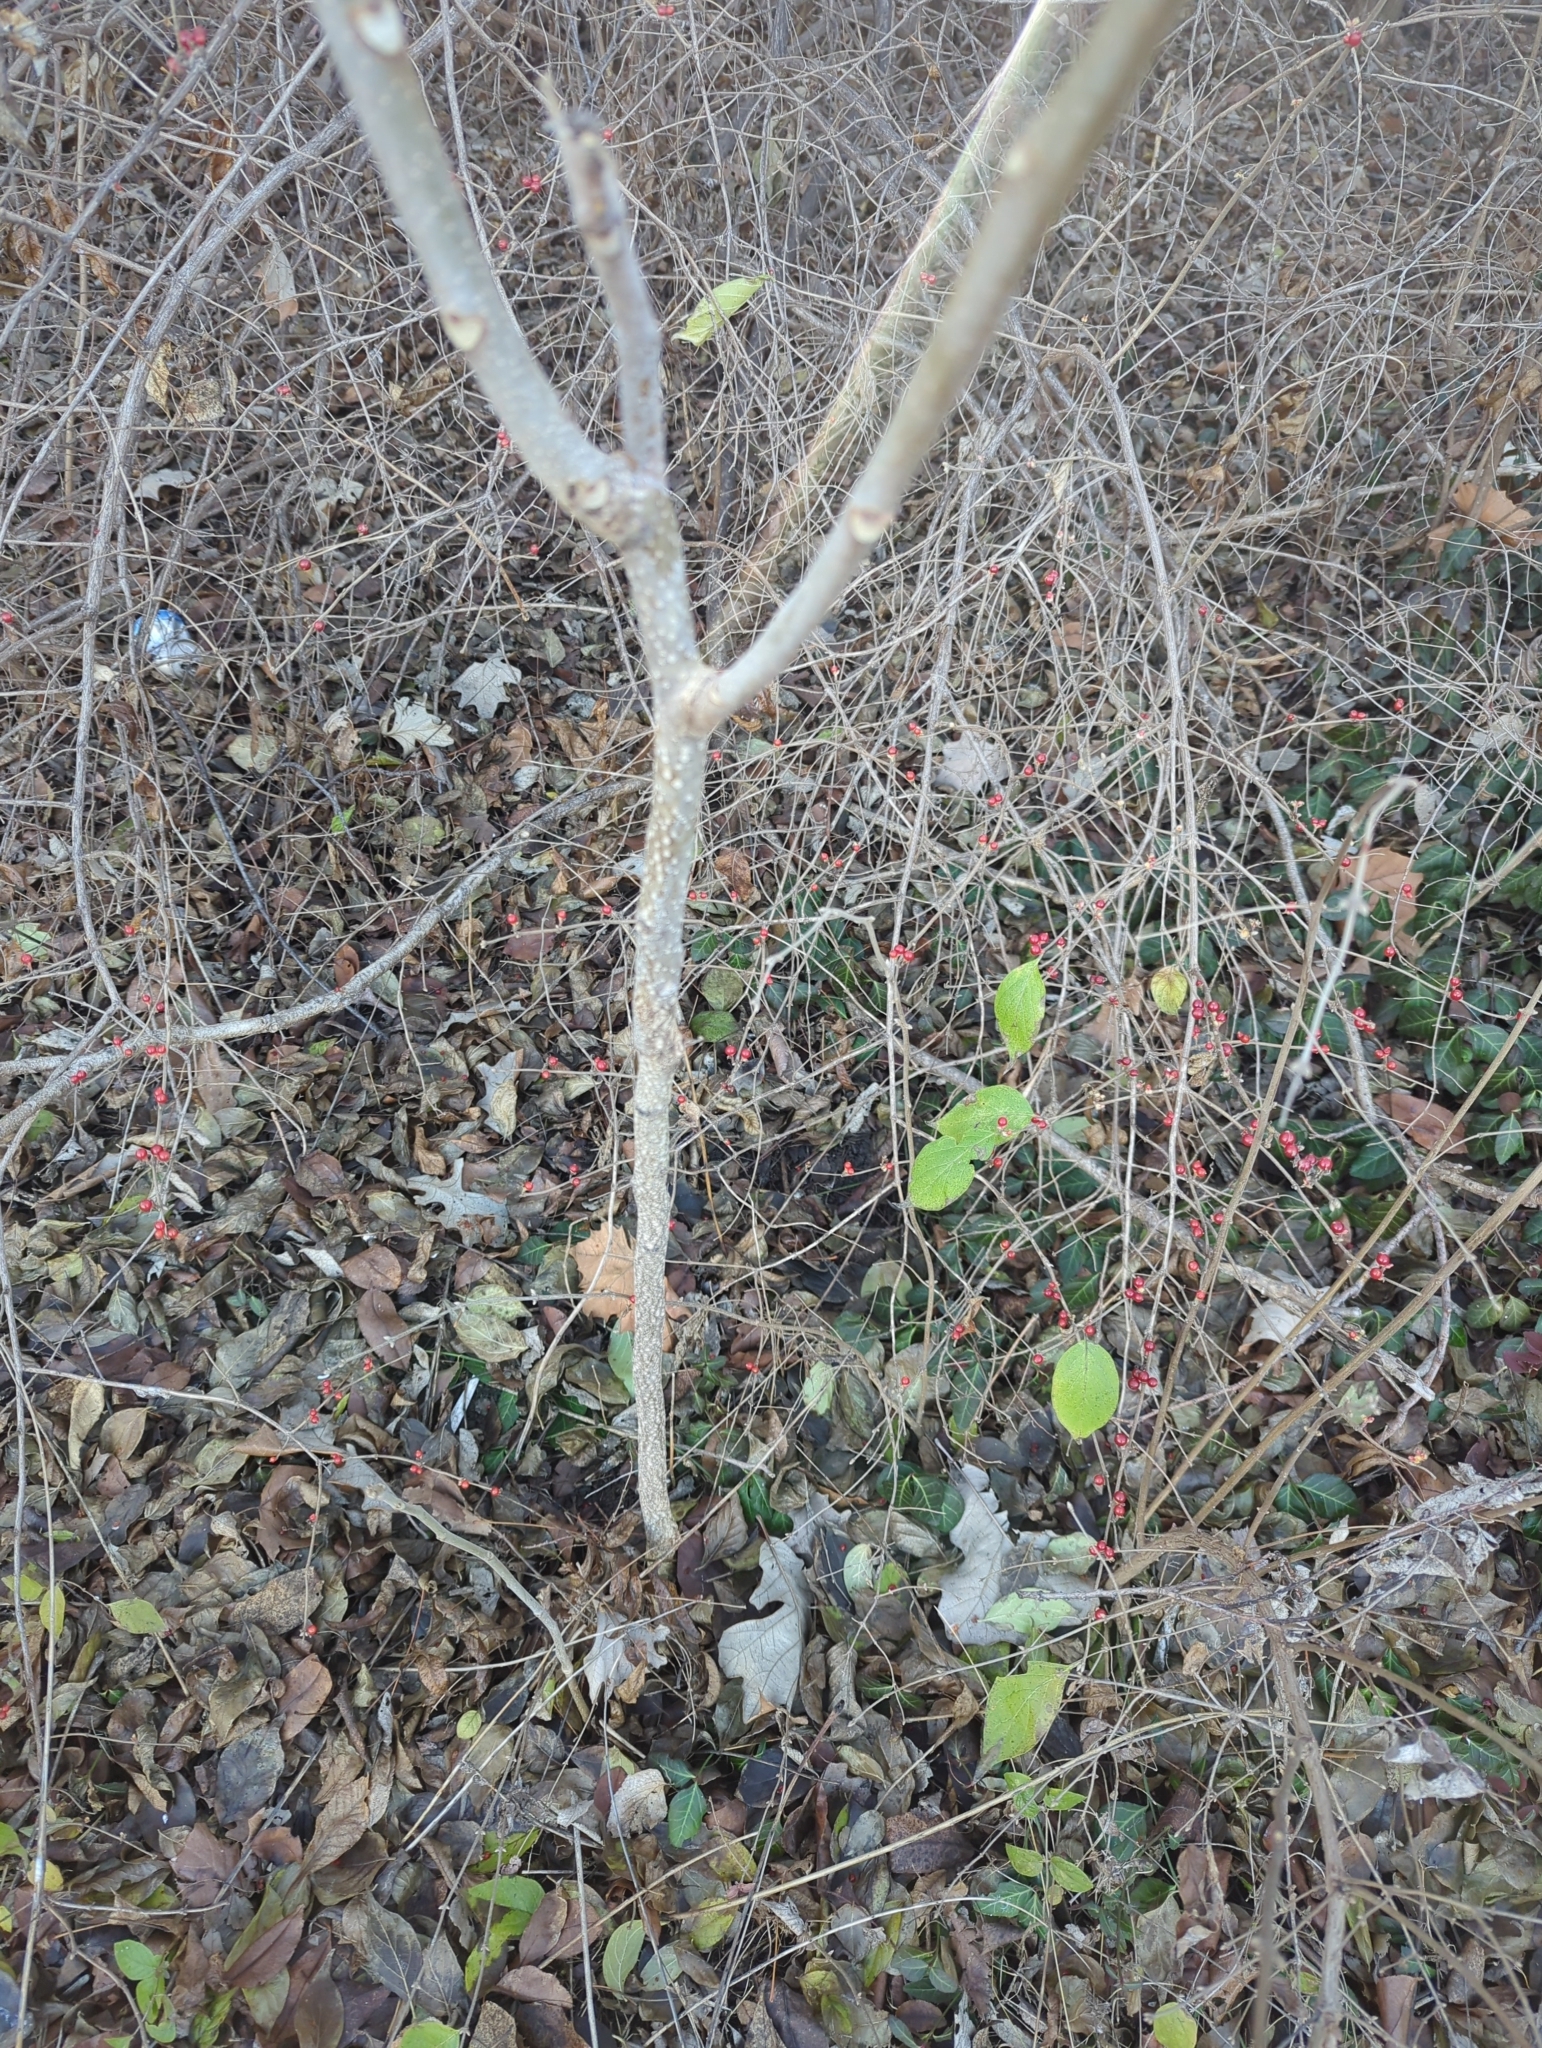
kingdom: Plantae
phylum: Tracheophyta
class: Magnoliopsida
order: Sapindales
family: Simaroubaceae
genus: Ailanthus
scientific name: Ailanthus altissima
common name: Tree-of-heaven
